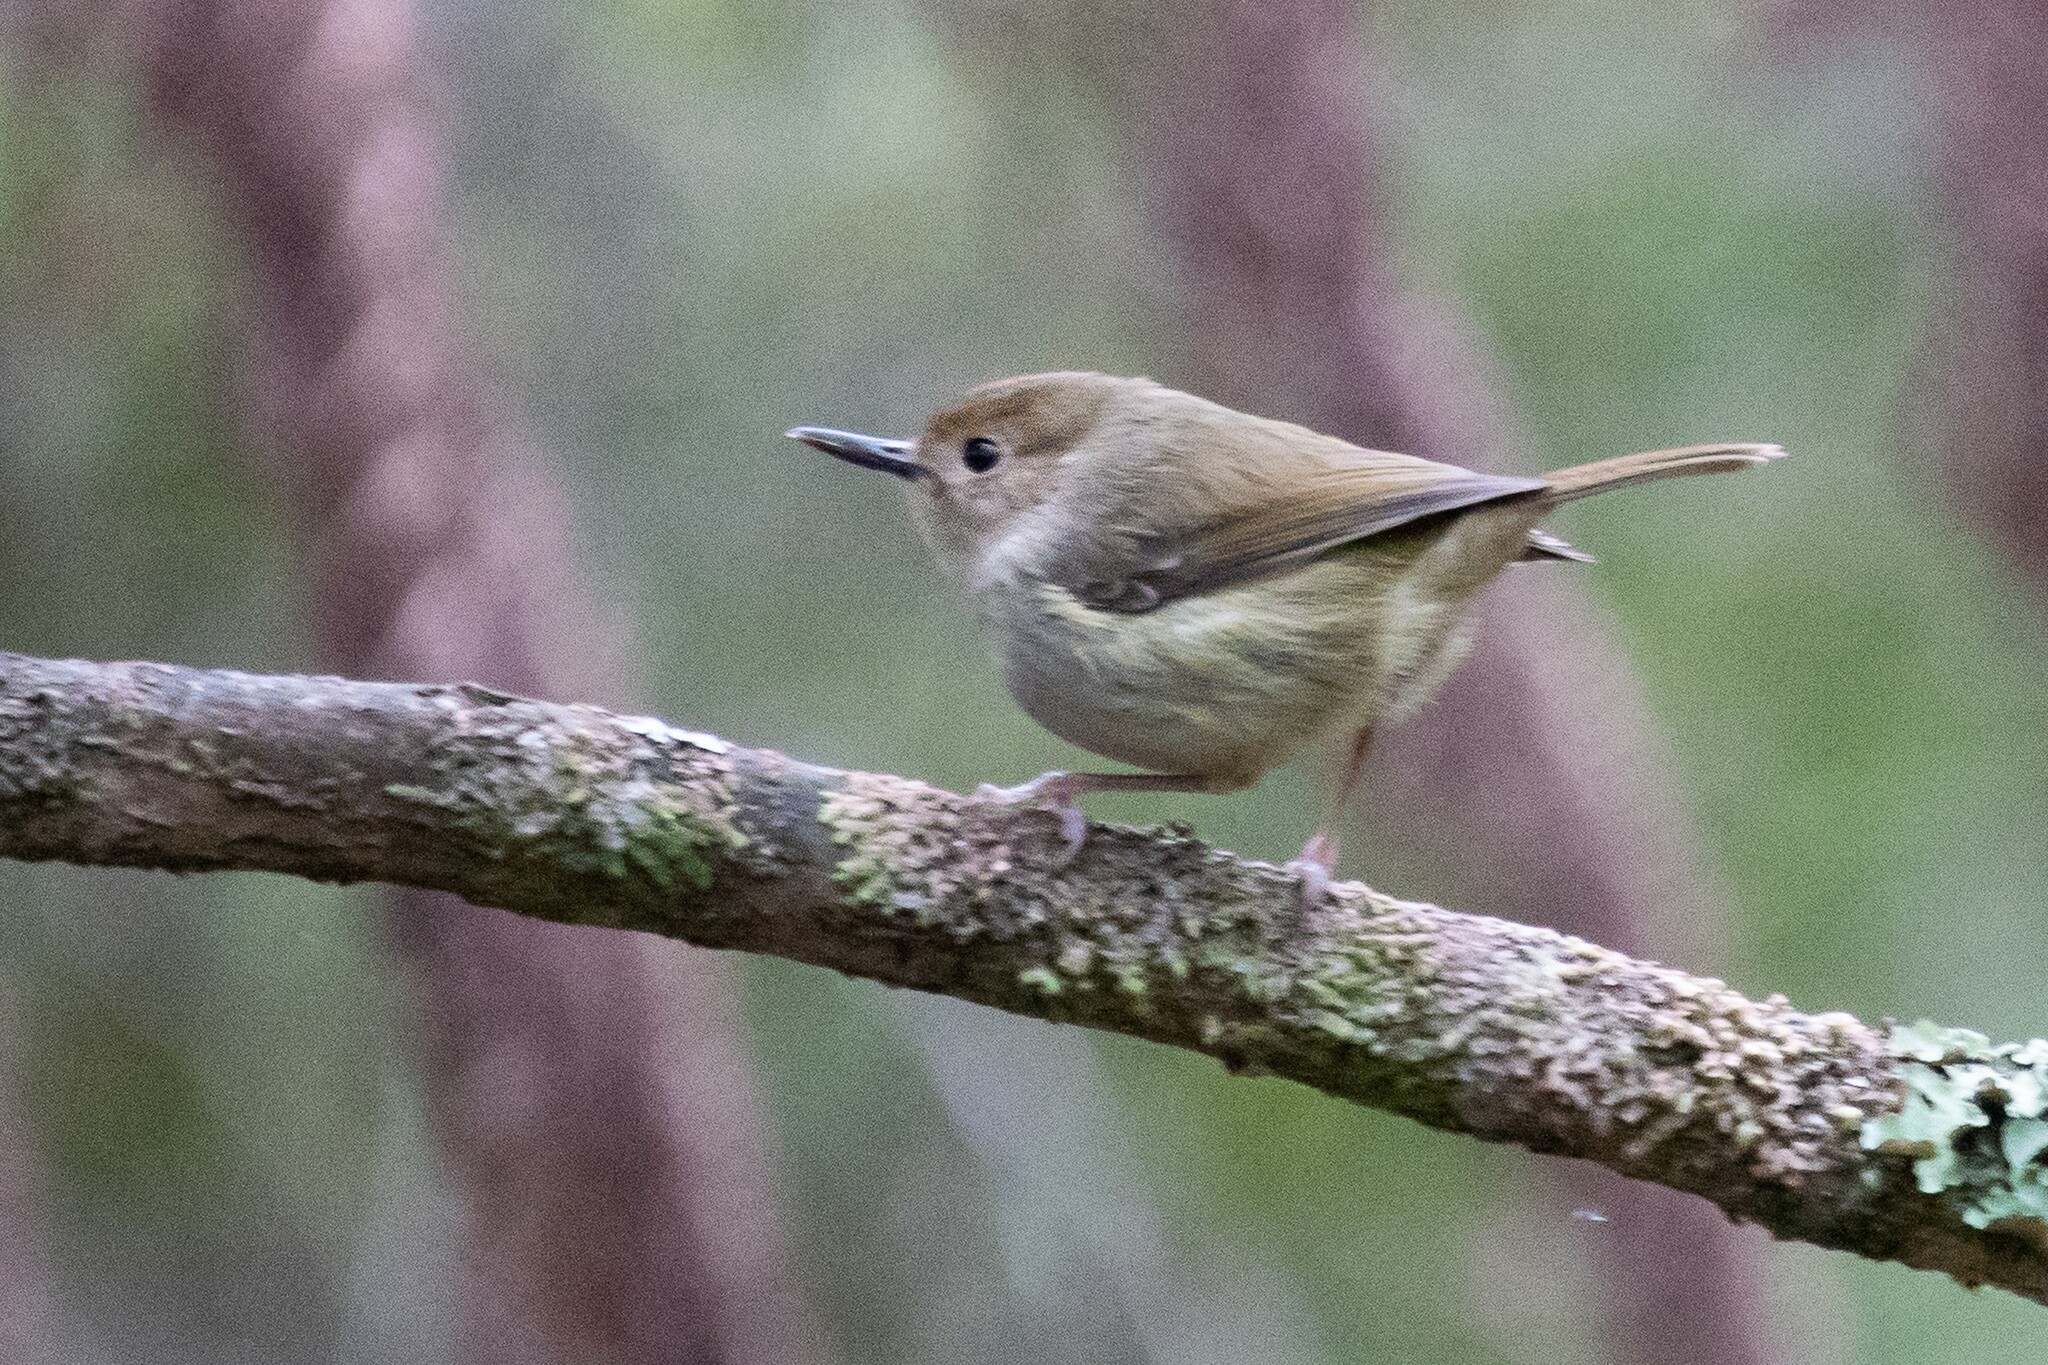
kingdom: Animalia
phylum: Chordata
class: Aves
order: Passeriformes
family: Acanthizidae
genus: Sericornis
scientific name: Sericornis magnirostra
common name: Large-billed scrubwren
